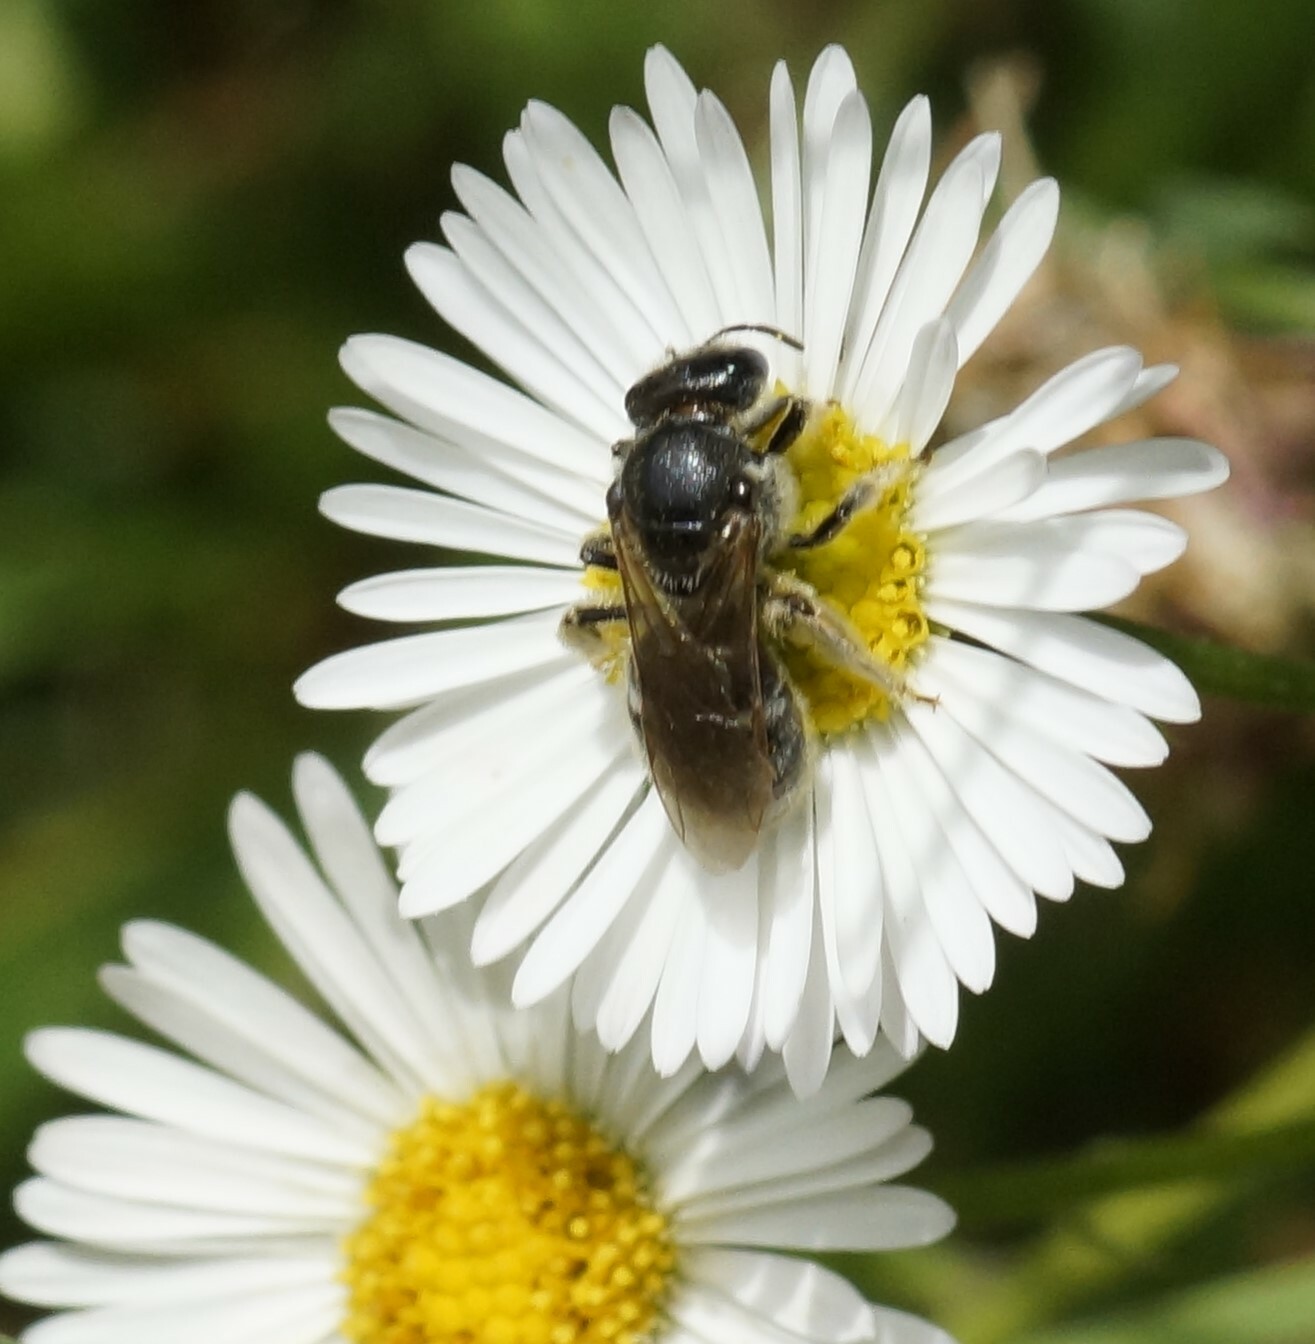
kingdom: Animalia
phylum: Arthropoda
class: Insecta
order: Hymenoptera
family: Halictidae
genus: Lasioglossum
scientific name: Lasioglossum lanarium
